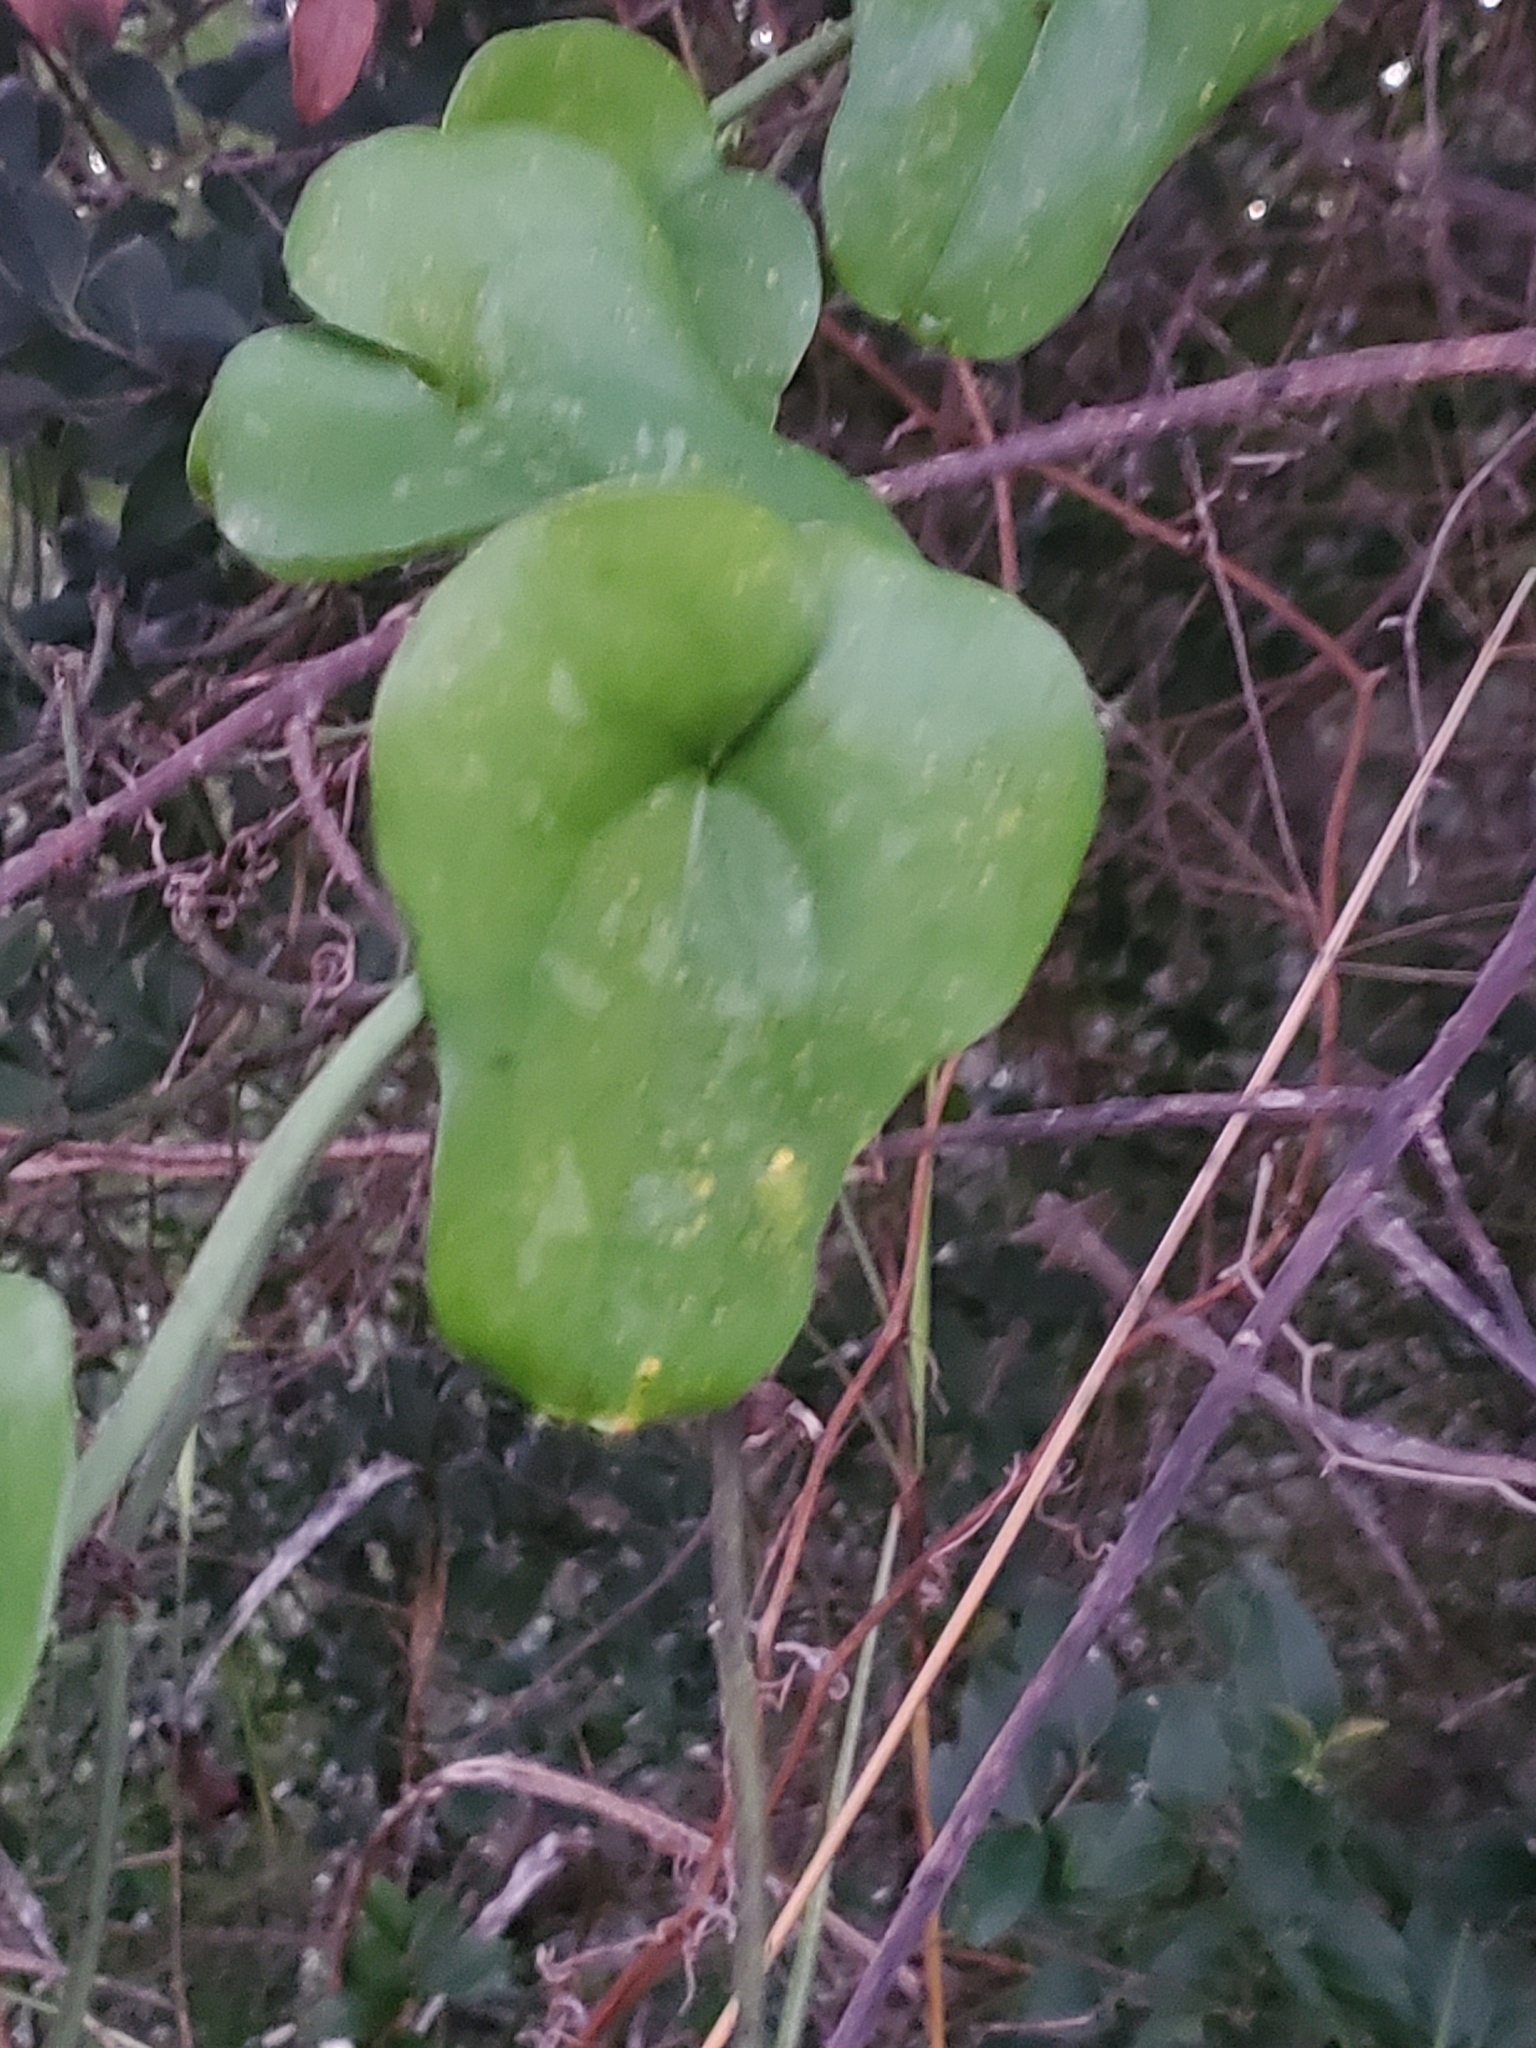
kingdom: Plantae
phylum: Tracheophyta
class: Liliopsida
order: Liliales
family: Smilacaceae
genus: Smilax
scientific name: Smilax bona-nox
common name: Catbrier
